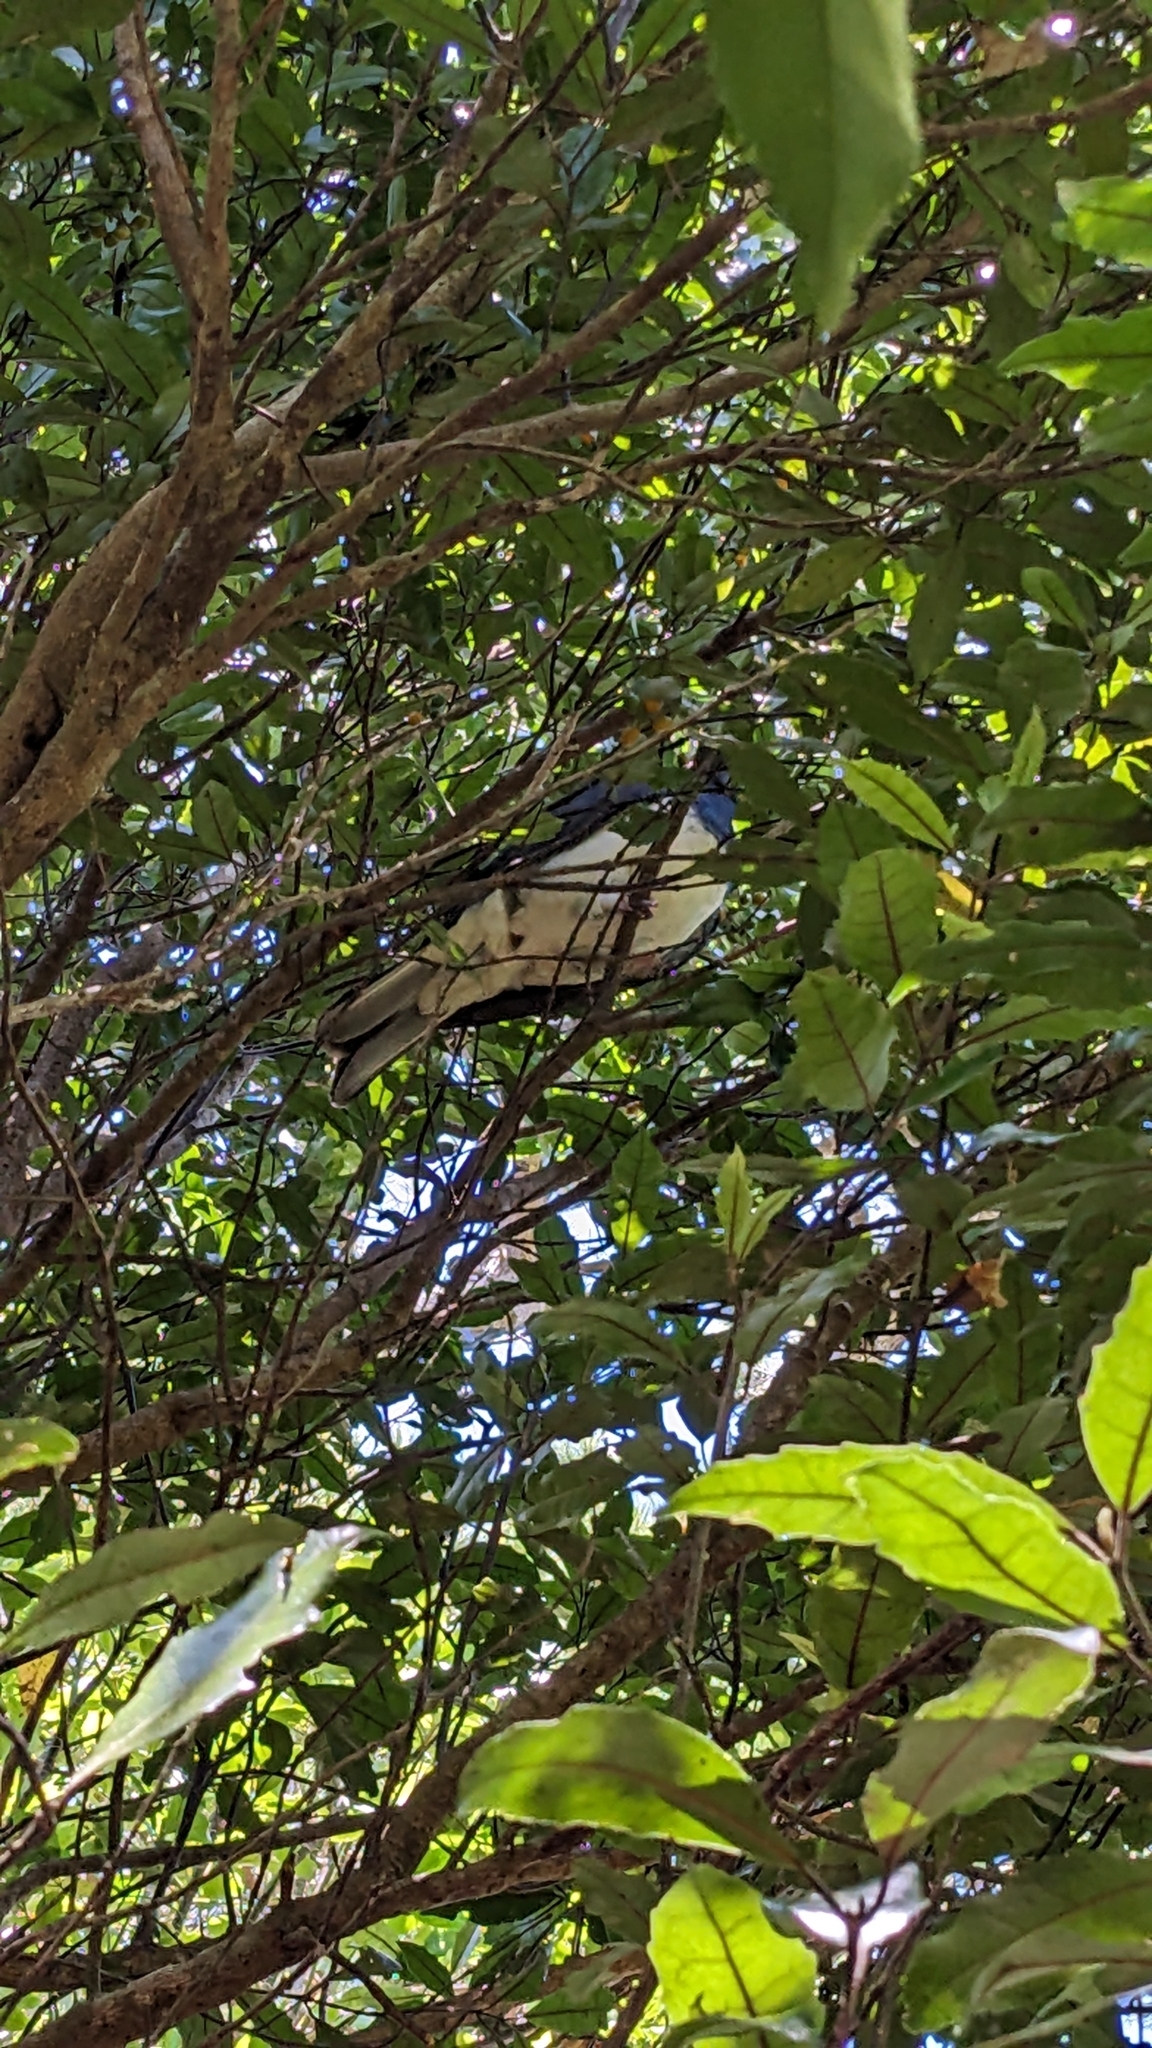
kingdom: Animalia
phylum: Chordata
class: Aves
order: Columbiformes
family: Columbidae
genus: Hemiphaga
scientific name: Hemiphaga novaeseelandiae
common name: New zealand pigeon
